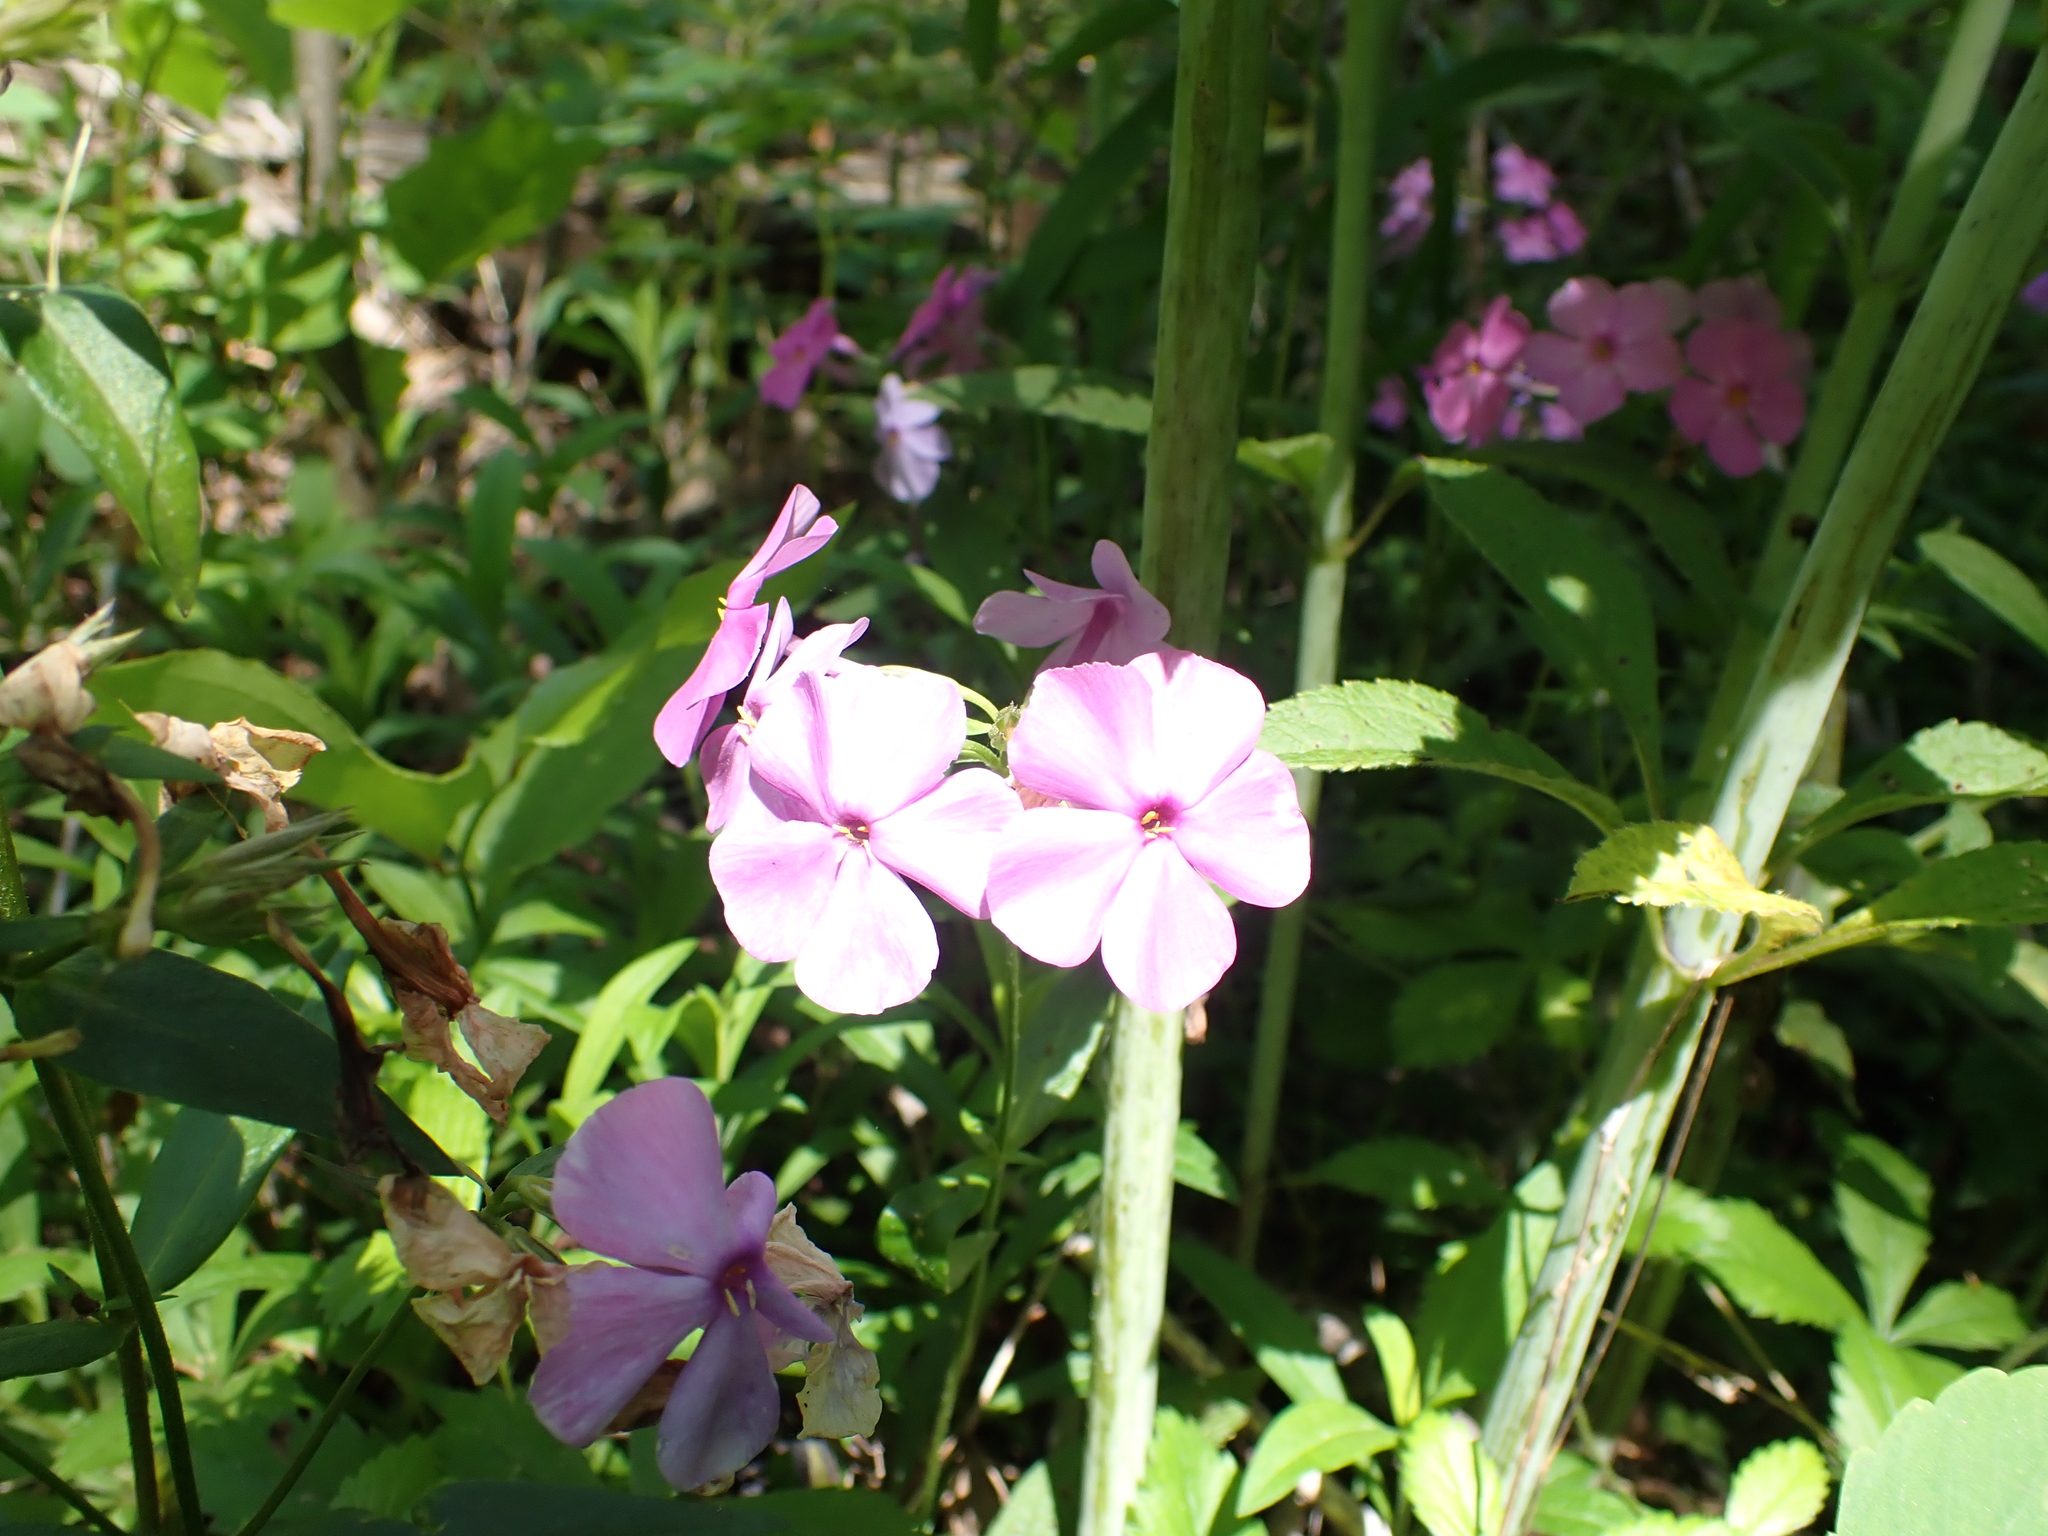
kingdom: Plantae
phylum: Tracheophyta
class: Magnoliopsida
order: Ericales
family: Polemoniaceae
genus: Phlox
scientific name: Phlox glaberrima
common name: Smooth phlox
